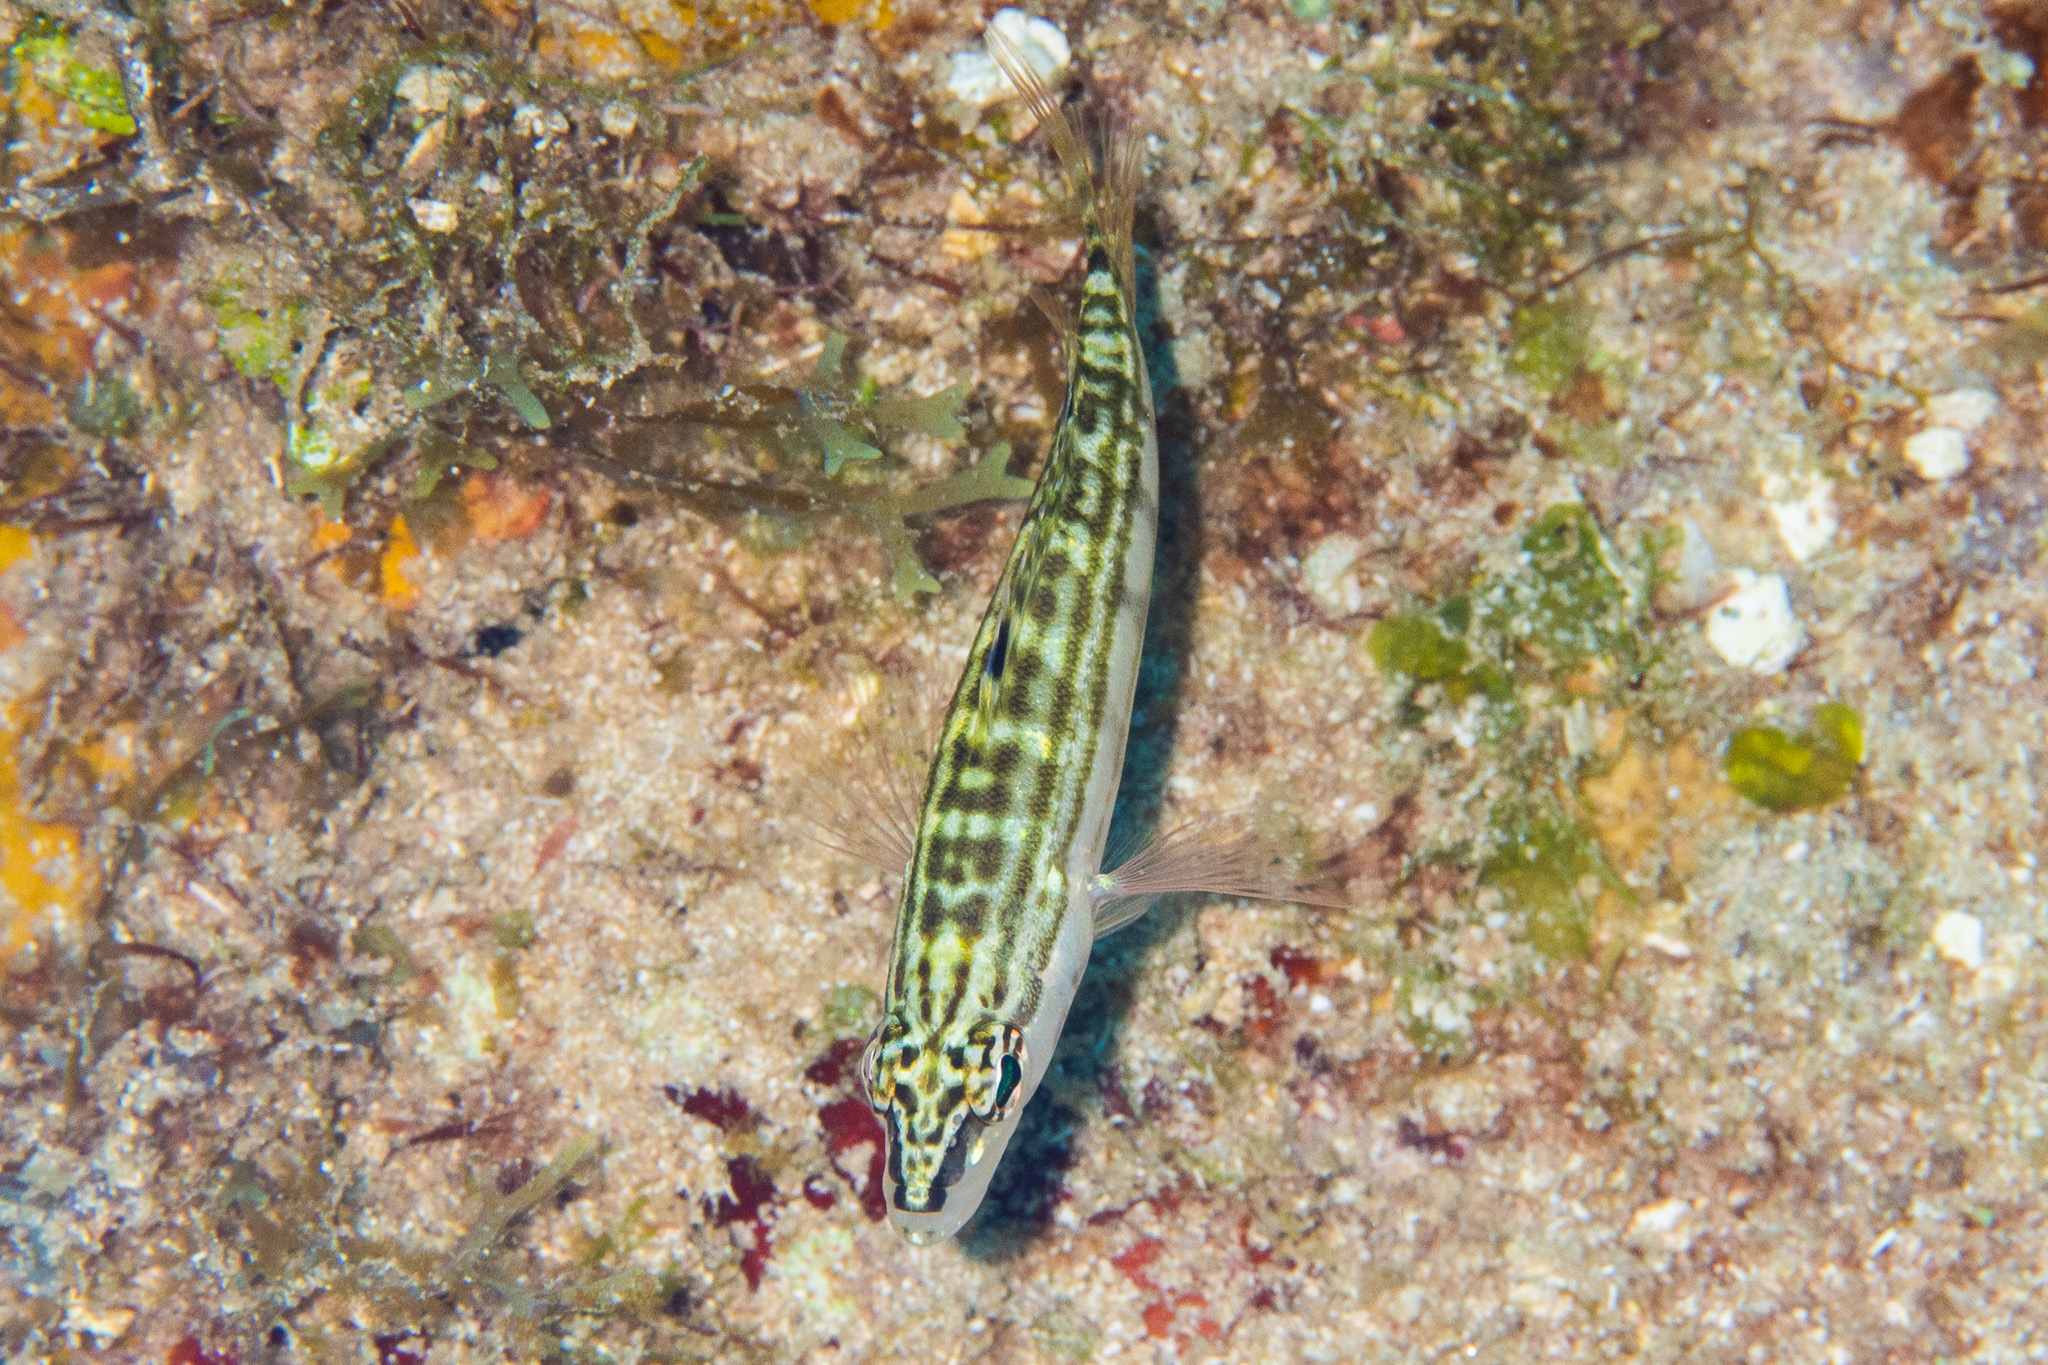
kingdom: Animalia
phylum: Chordata
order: Perciformes
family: Serranidae
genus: Serranus
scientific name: Serranus tigrinus
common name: Harlequin bass
